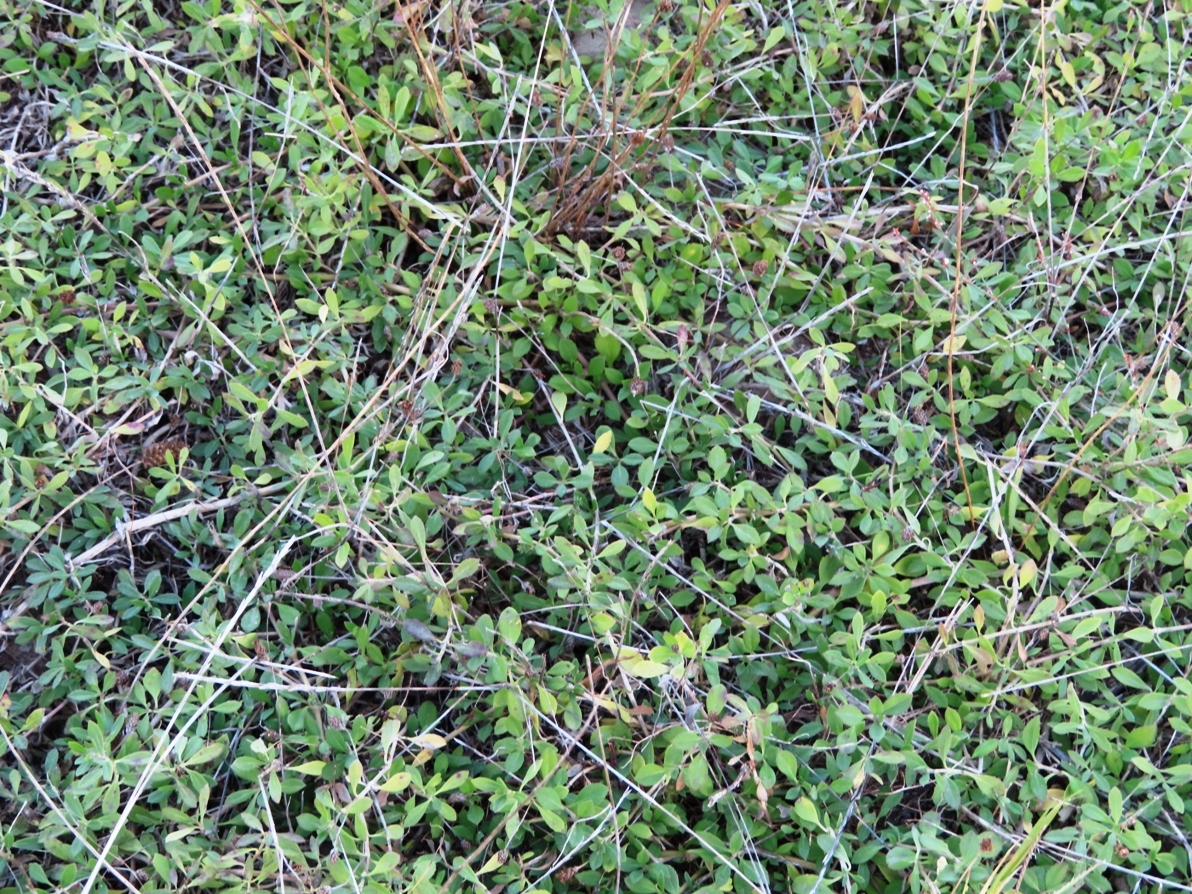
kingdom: Plantae
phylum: Tracheophyta
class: Magnoliopsida
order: Lamiales
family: Verbenaceae
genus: Phyla
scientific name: Phyla nodiflora
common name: Frogfruit
